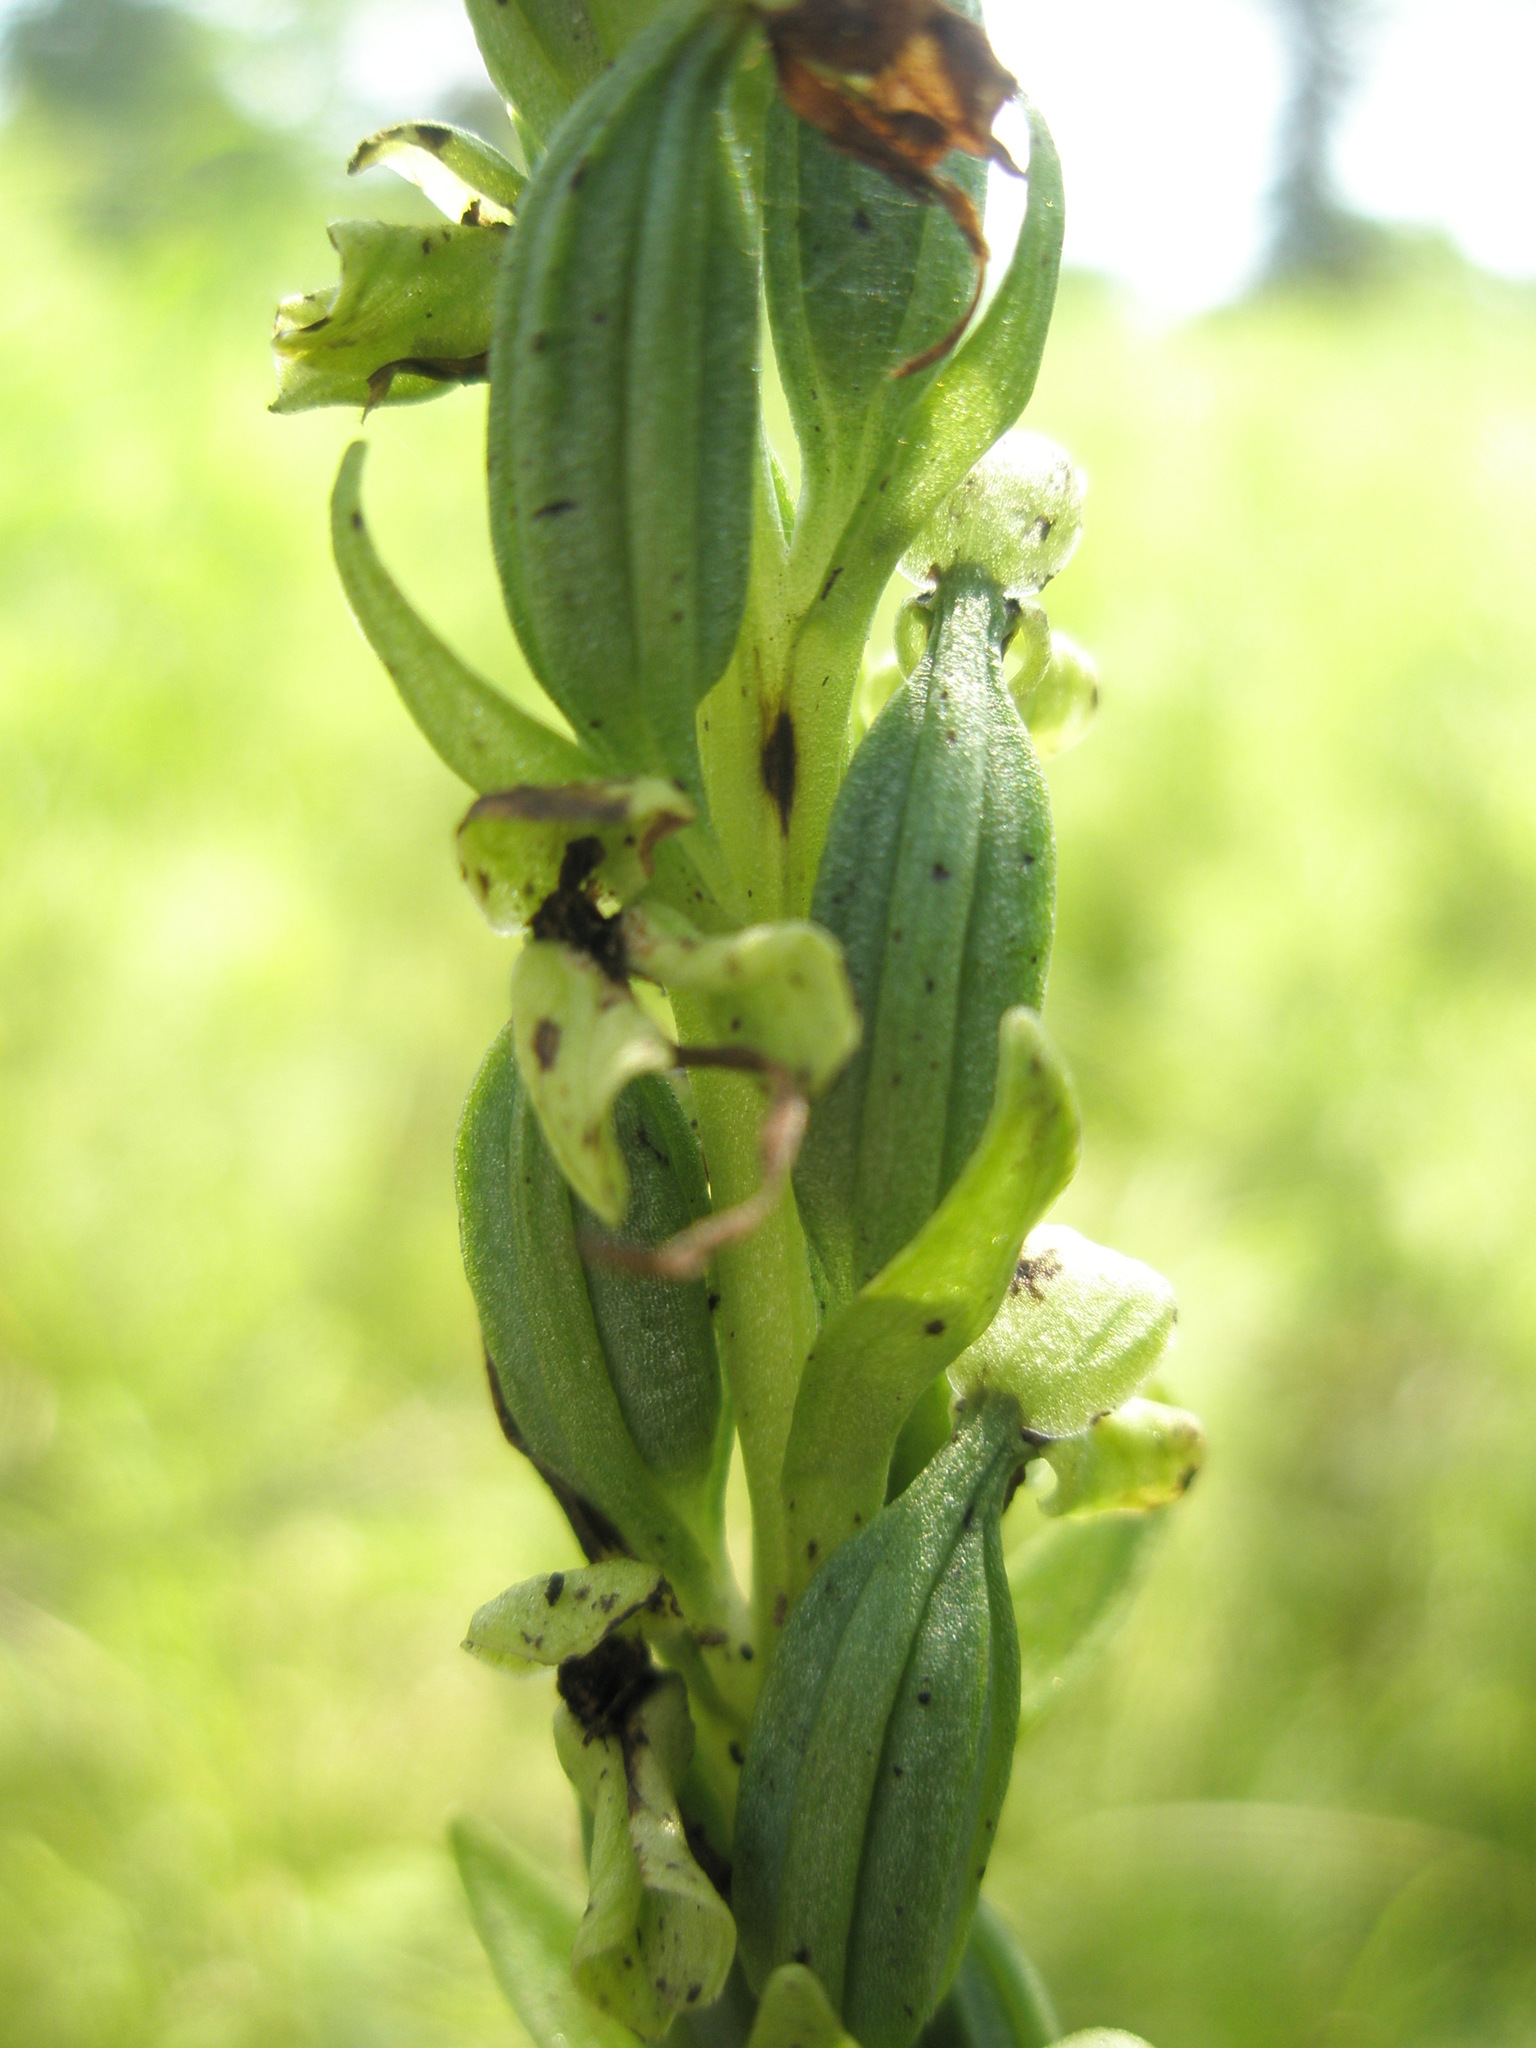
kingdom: Plantae
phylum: Tracheophyta
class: Liliopsida
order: Asparagales
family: Orchidaceae
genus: Platanthera
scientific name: Platanthera flava
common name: Gypsy-spikes
